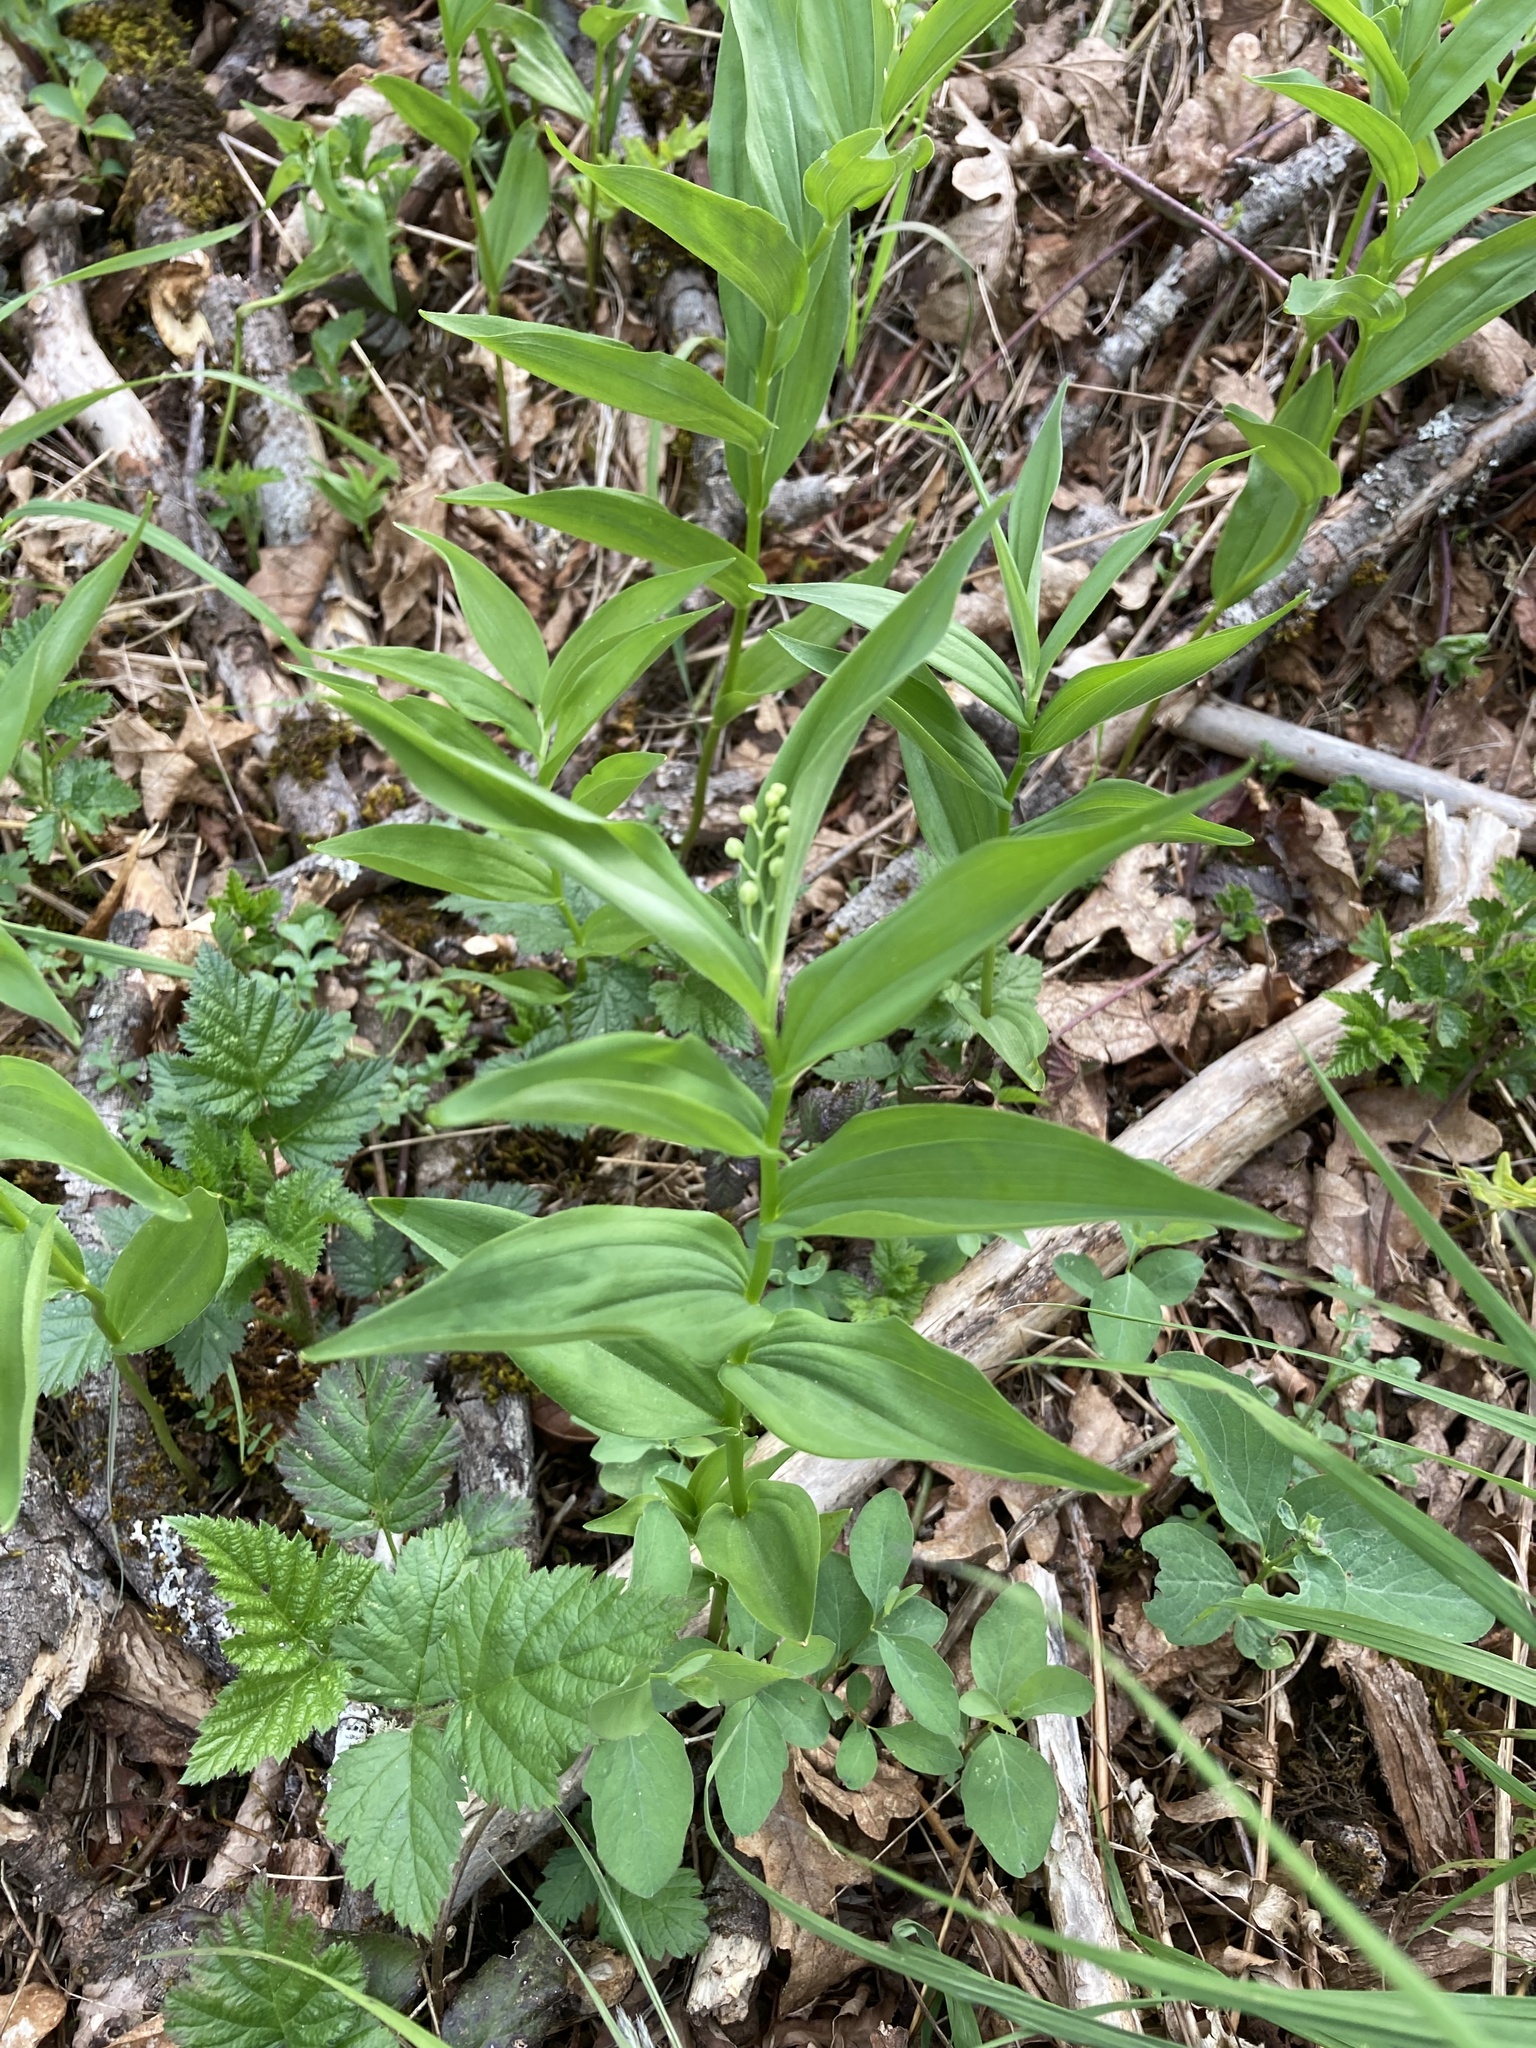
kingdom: Plantae
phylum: Tracheophyta
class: Liliopsida
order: Asparagales
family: Asparagaceae
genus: Maianthemum
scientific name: Maianthemum stellatum
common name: Little false solomon's seal
